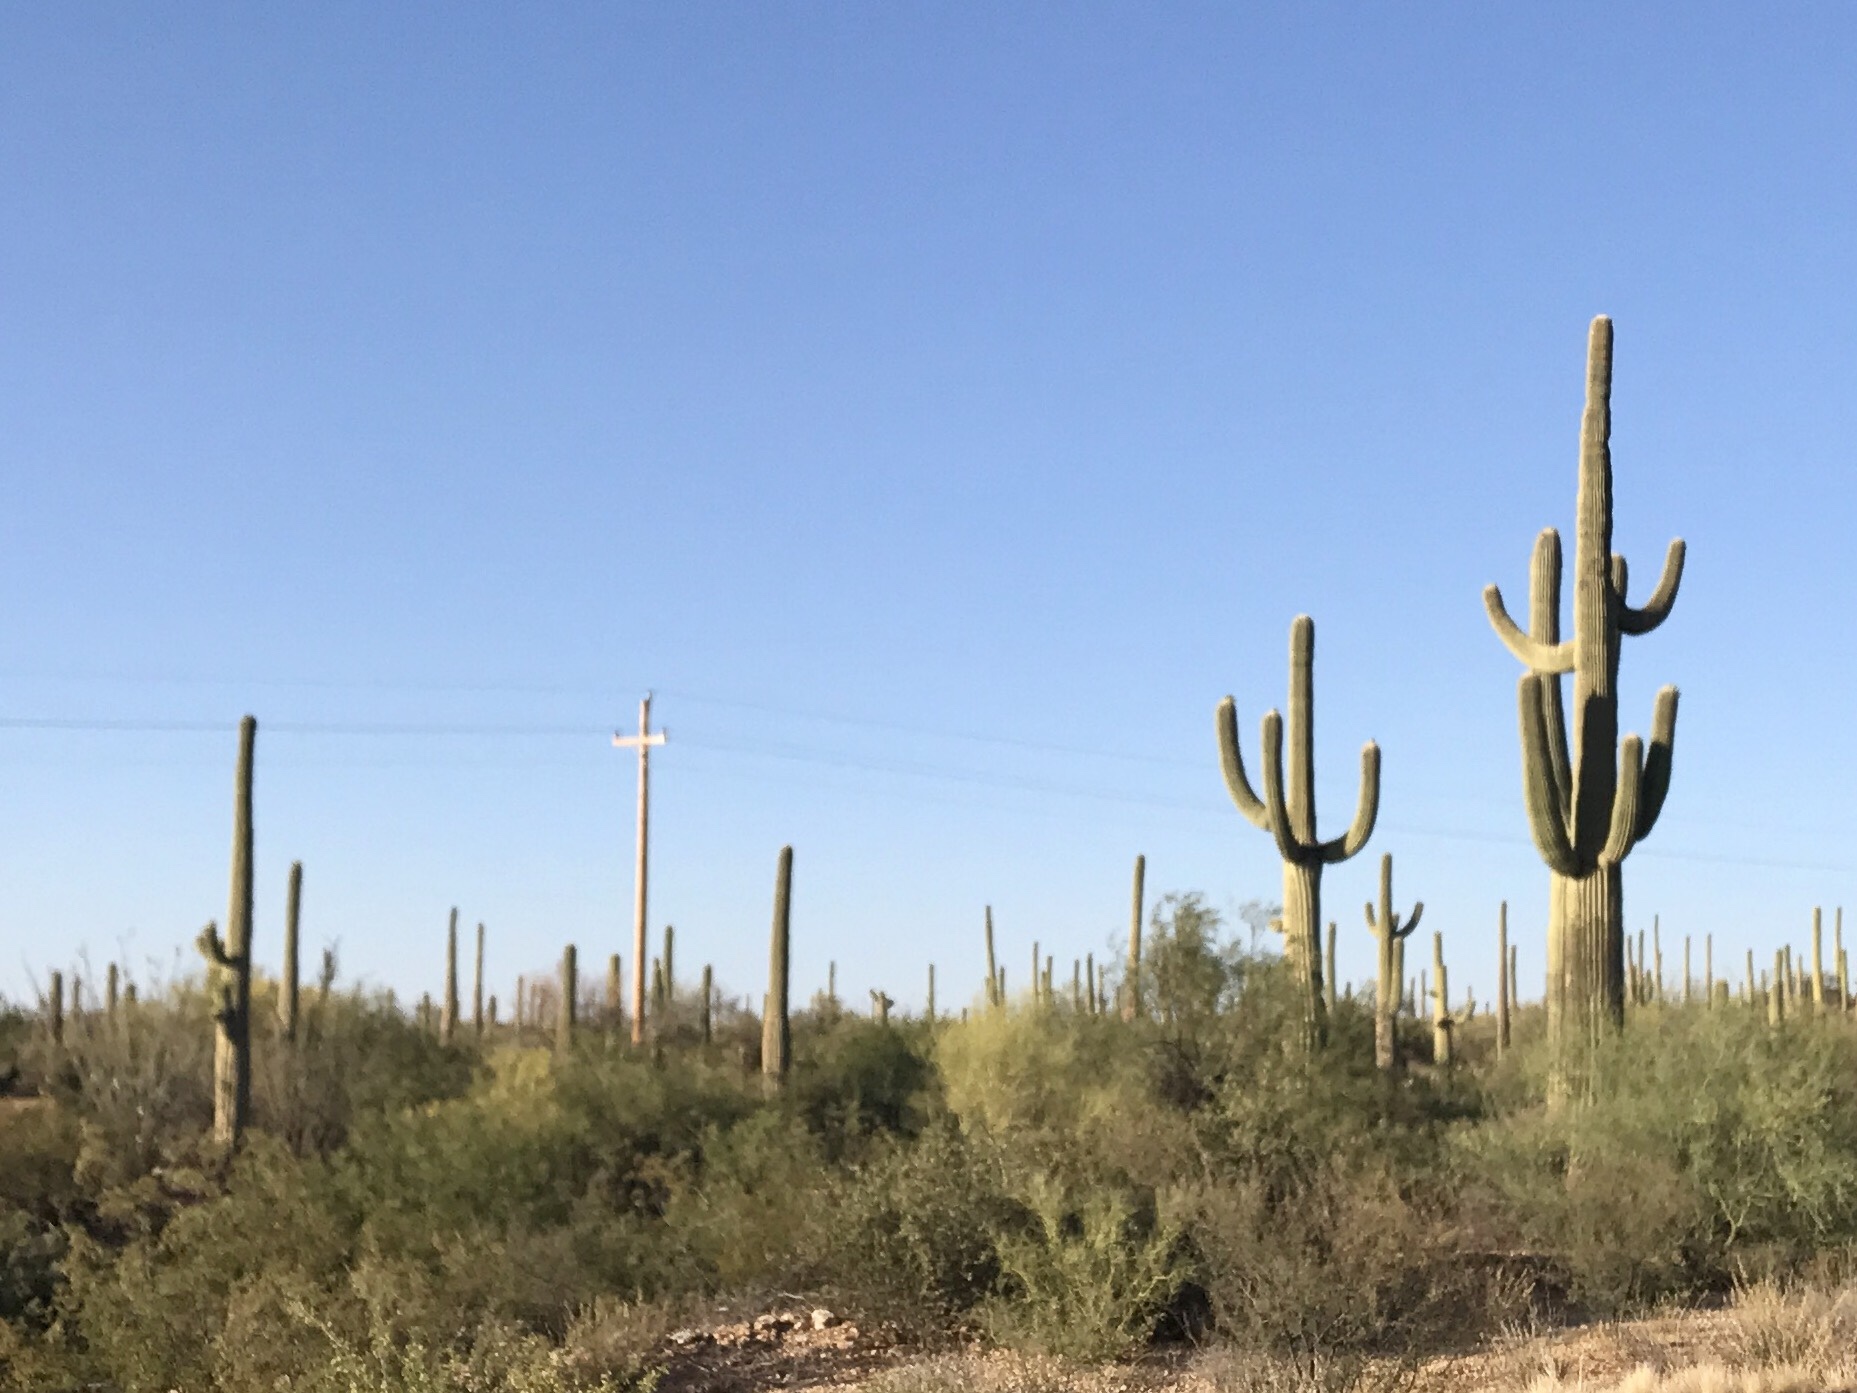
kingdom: Plantae
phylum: Tracheophyta
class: Magnoliopsida
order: Caryophyllales
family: Cactaceae
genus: Carnegiea
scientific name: Carnegiea gigantea
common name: Saguaro
